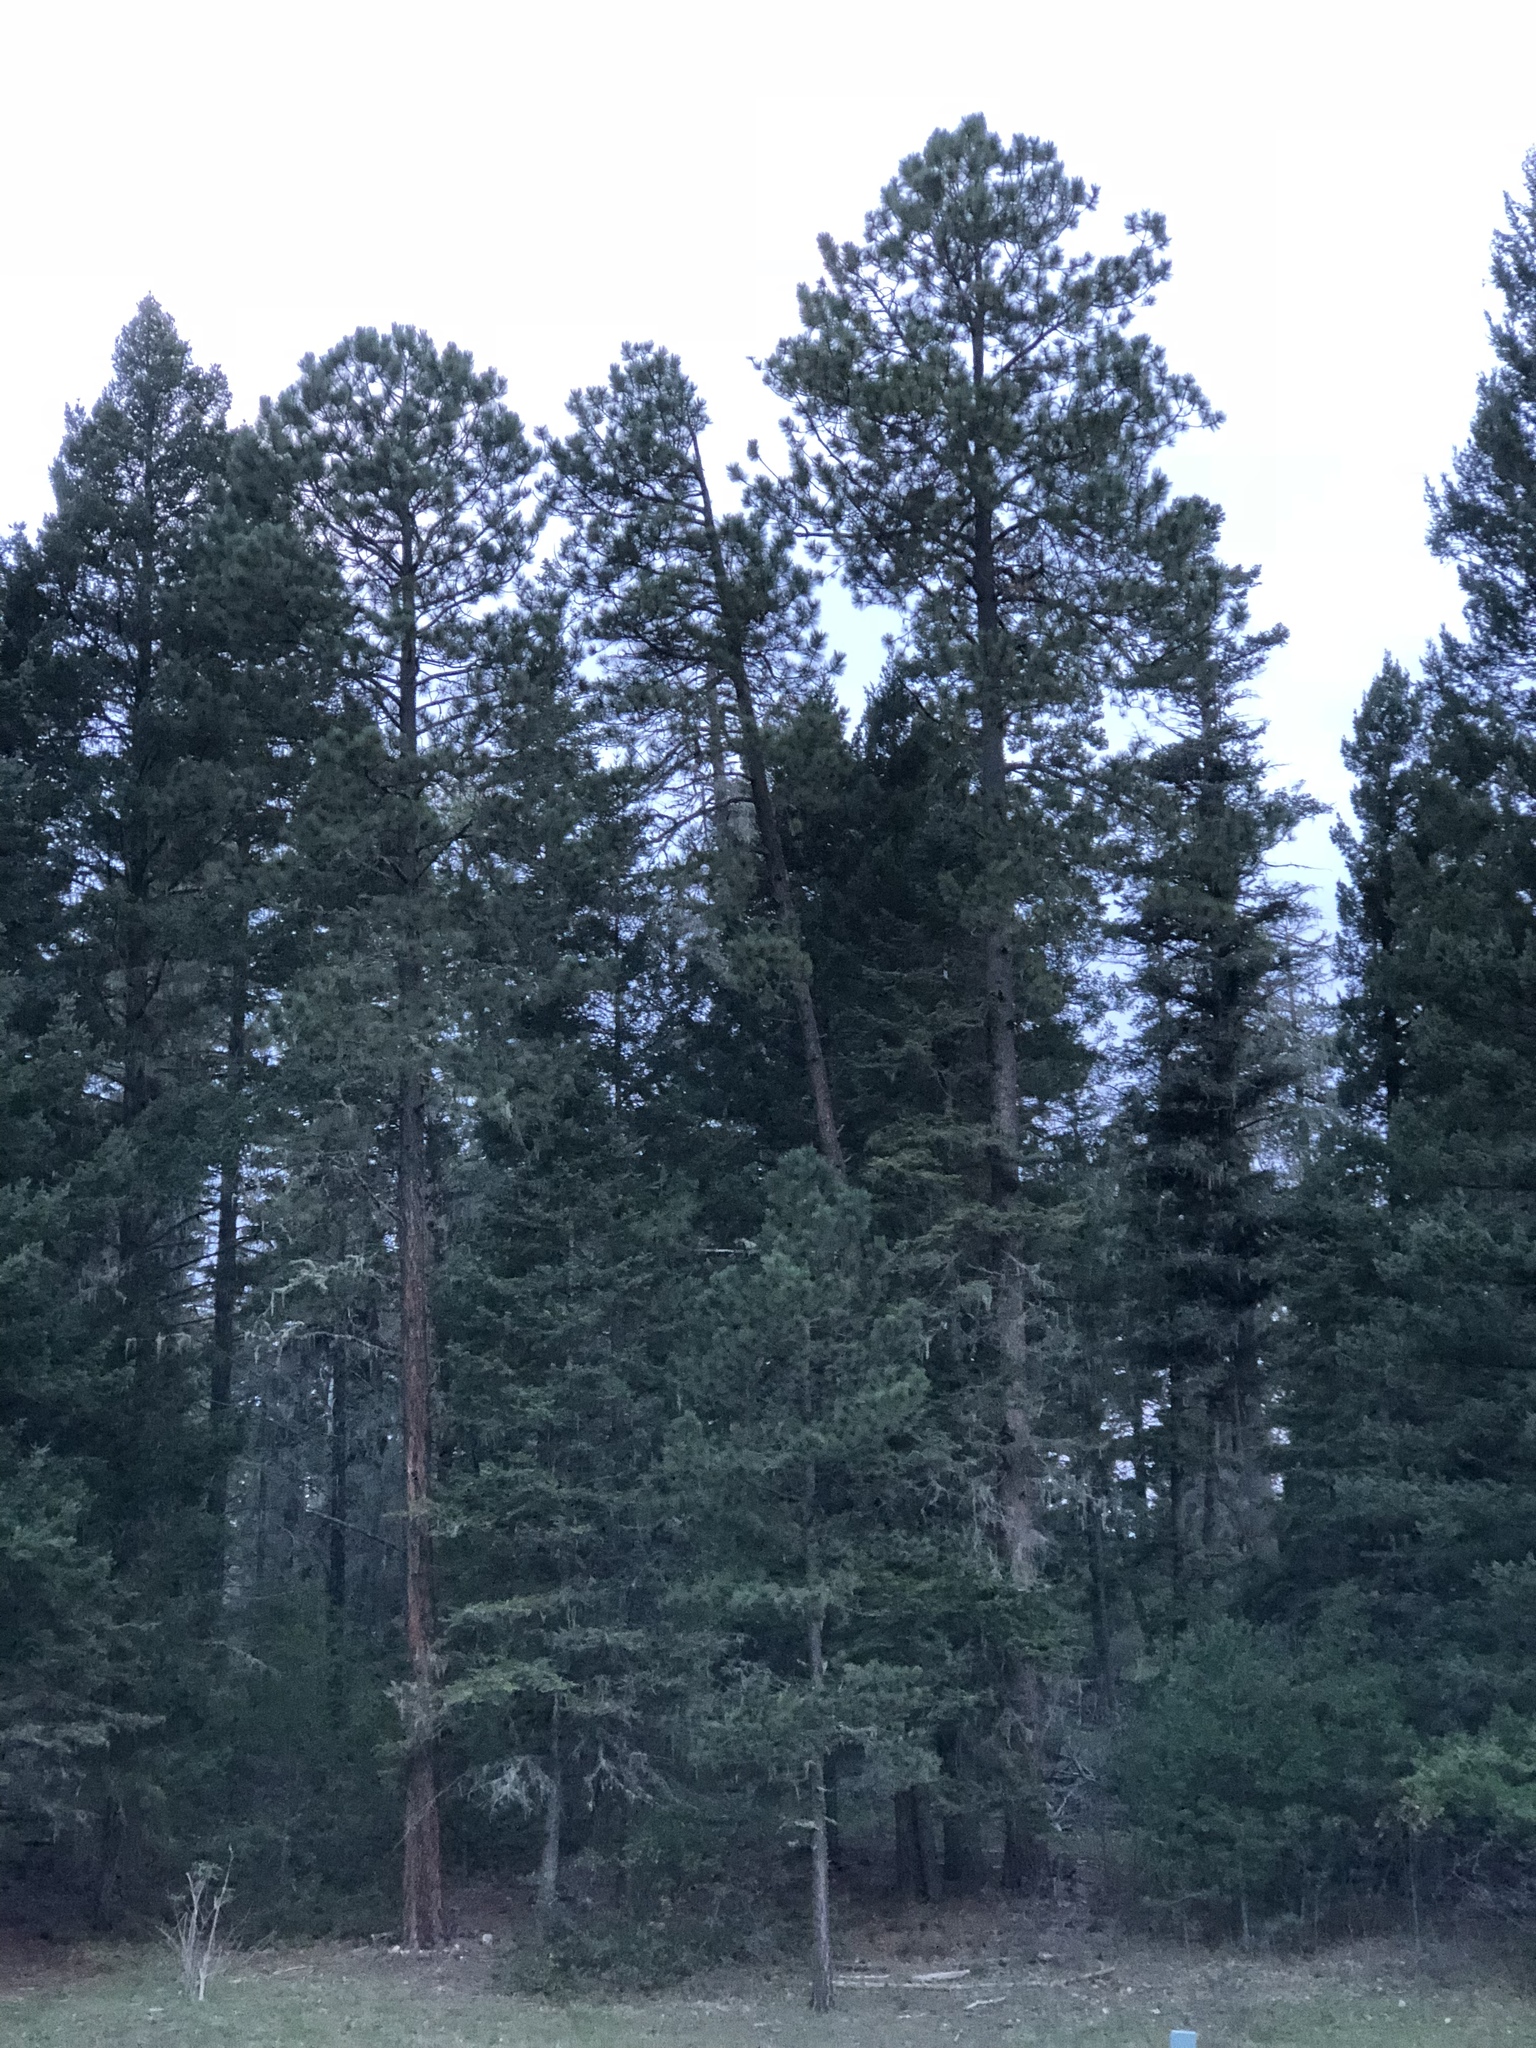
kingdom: Plantae
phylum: Tracheophyta
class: Pinopsida
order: Pinales
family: Pinaceae
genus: Pinus
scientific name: Pinus ponderosa
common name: Western yellow-pine
